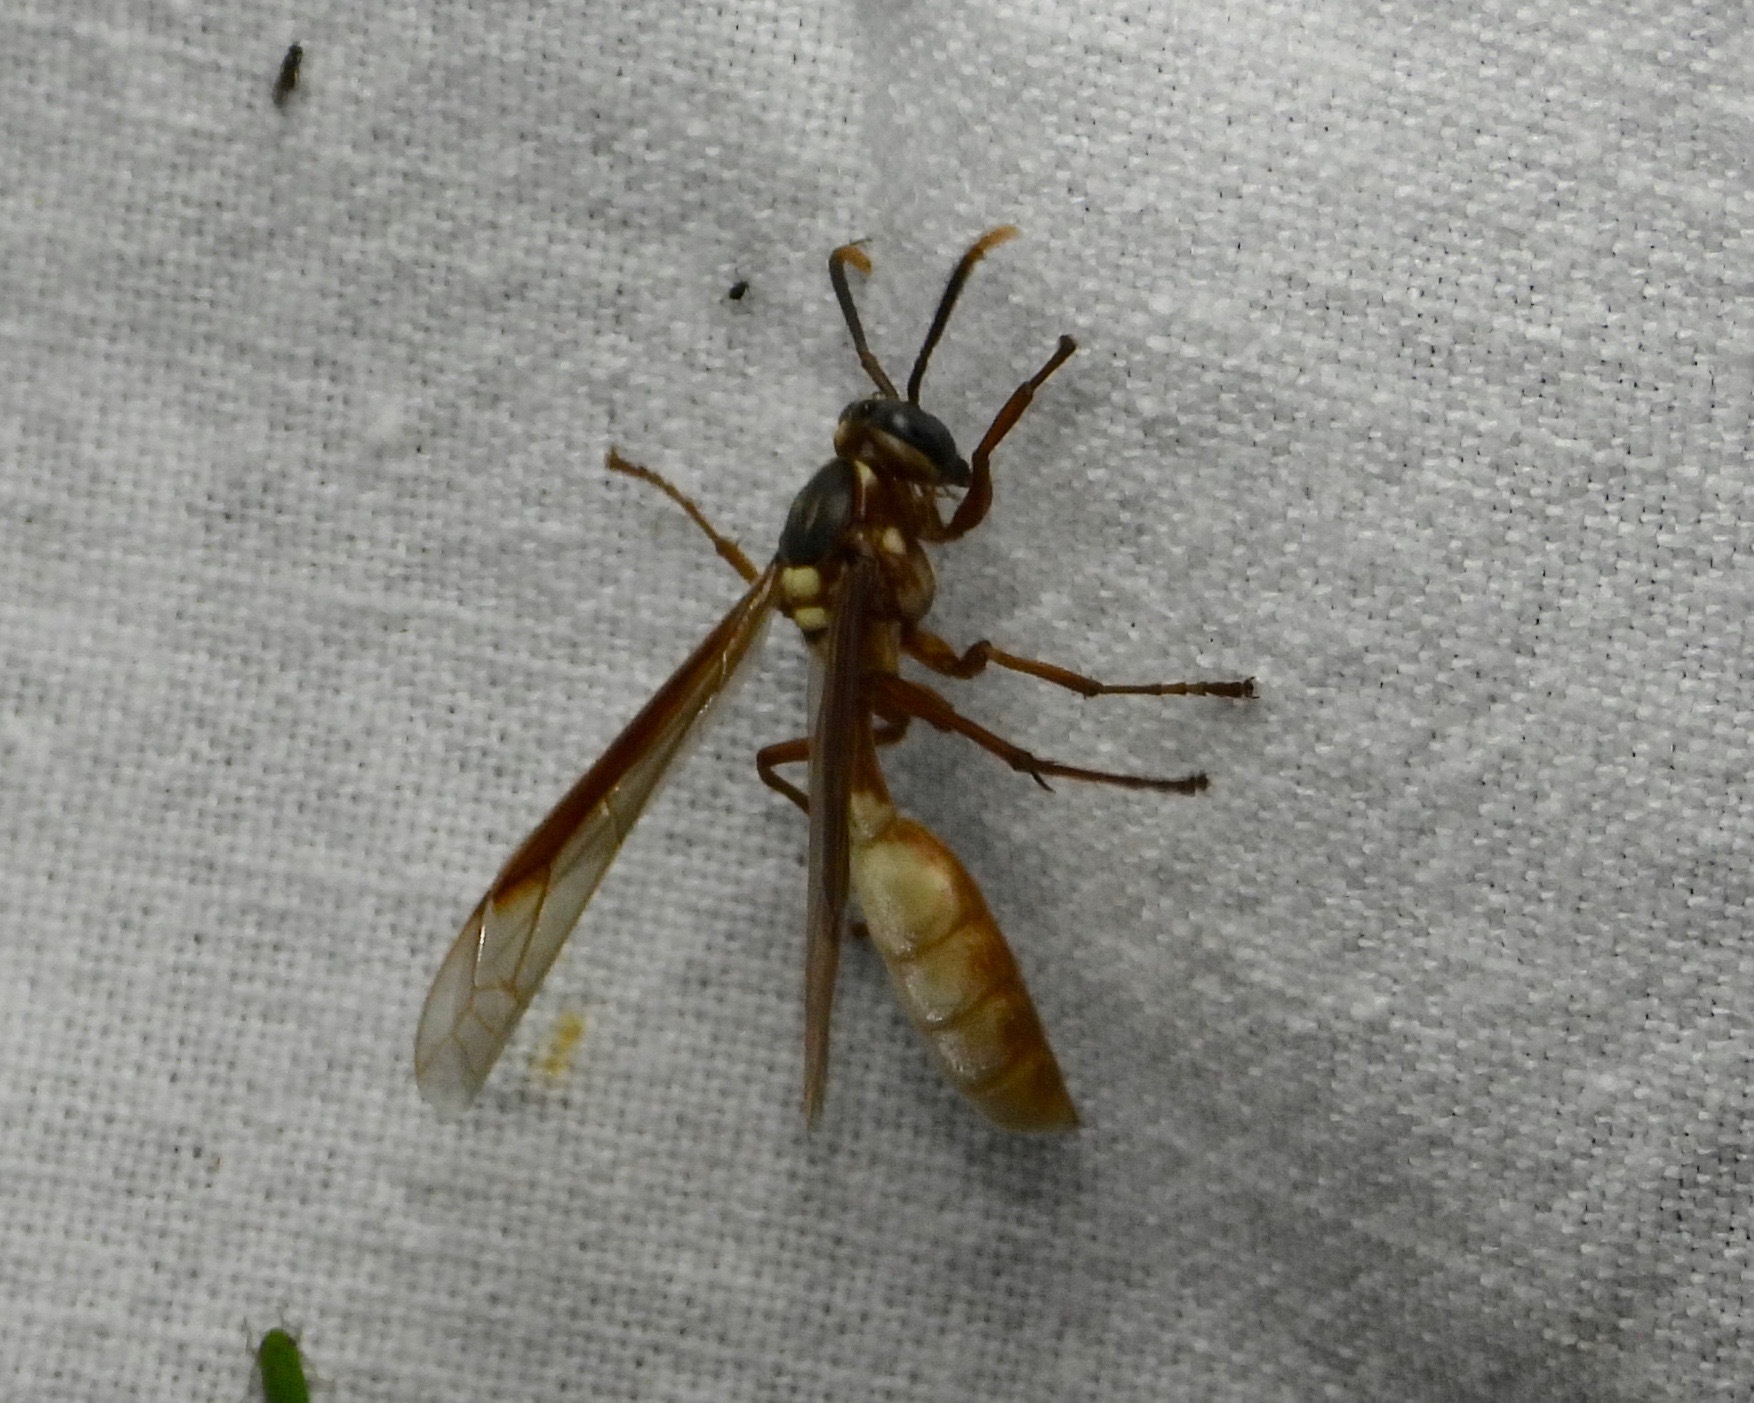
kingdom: Animalia
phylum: Arthropoda
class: Insecta
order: Hymenoptera
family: Vespidae
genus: Apoica
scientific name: Apoica pallens
